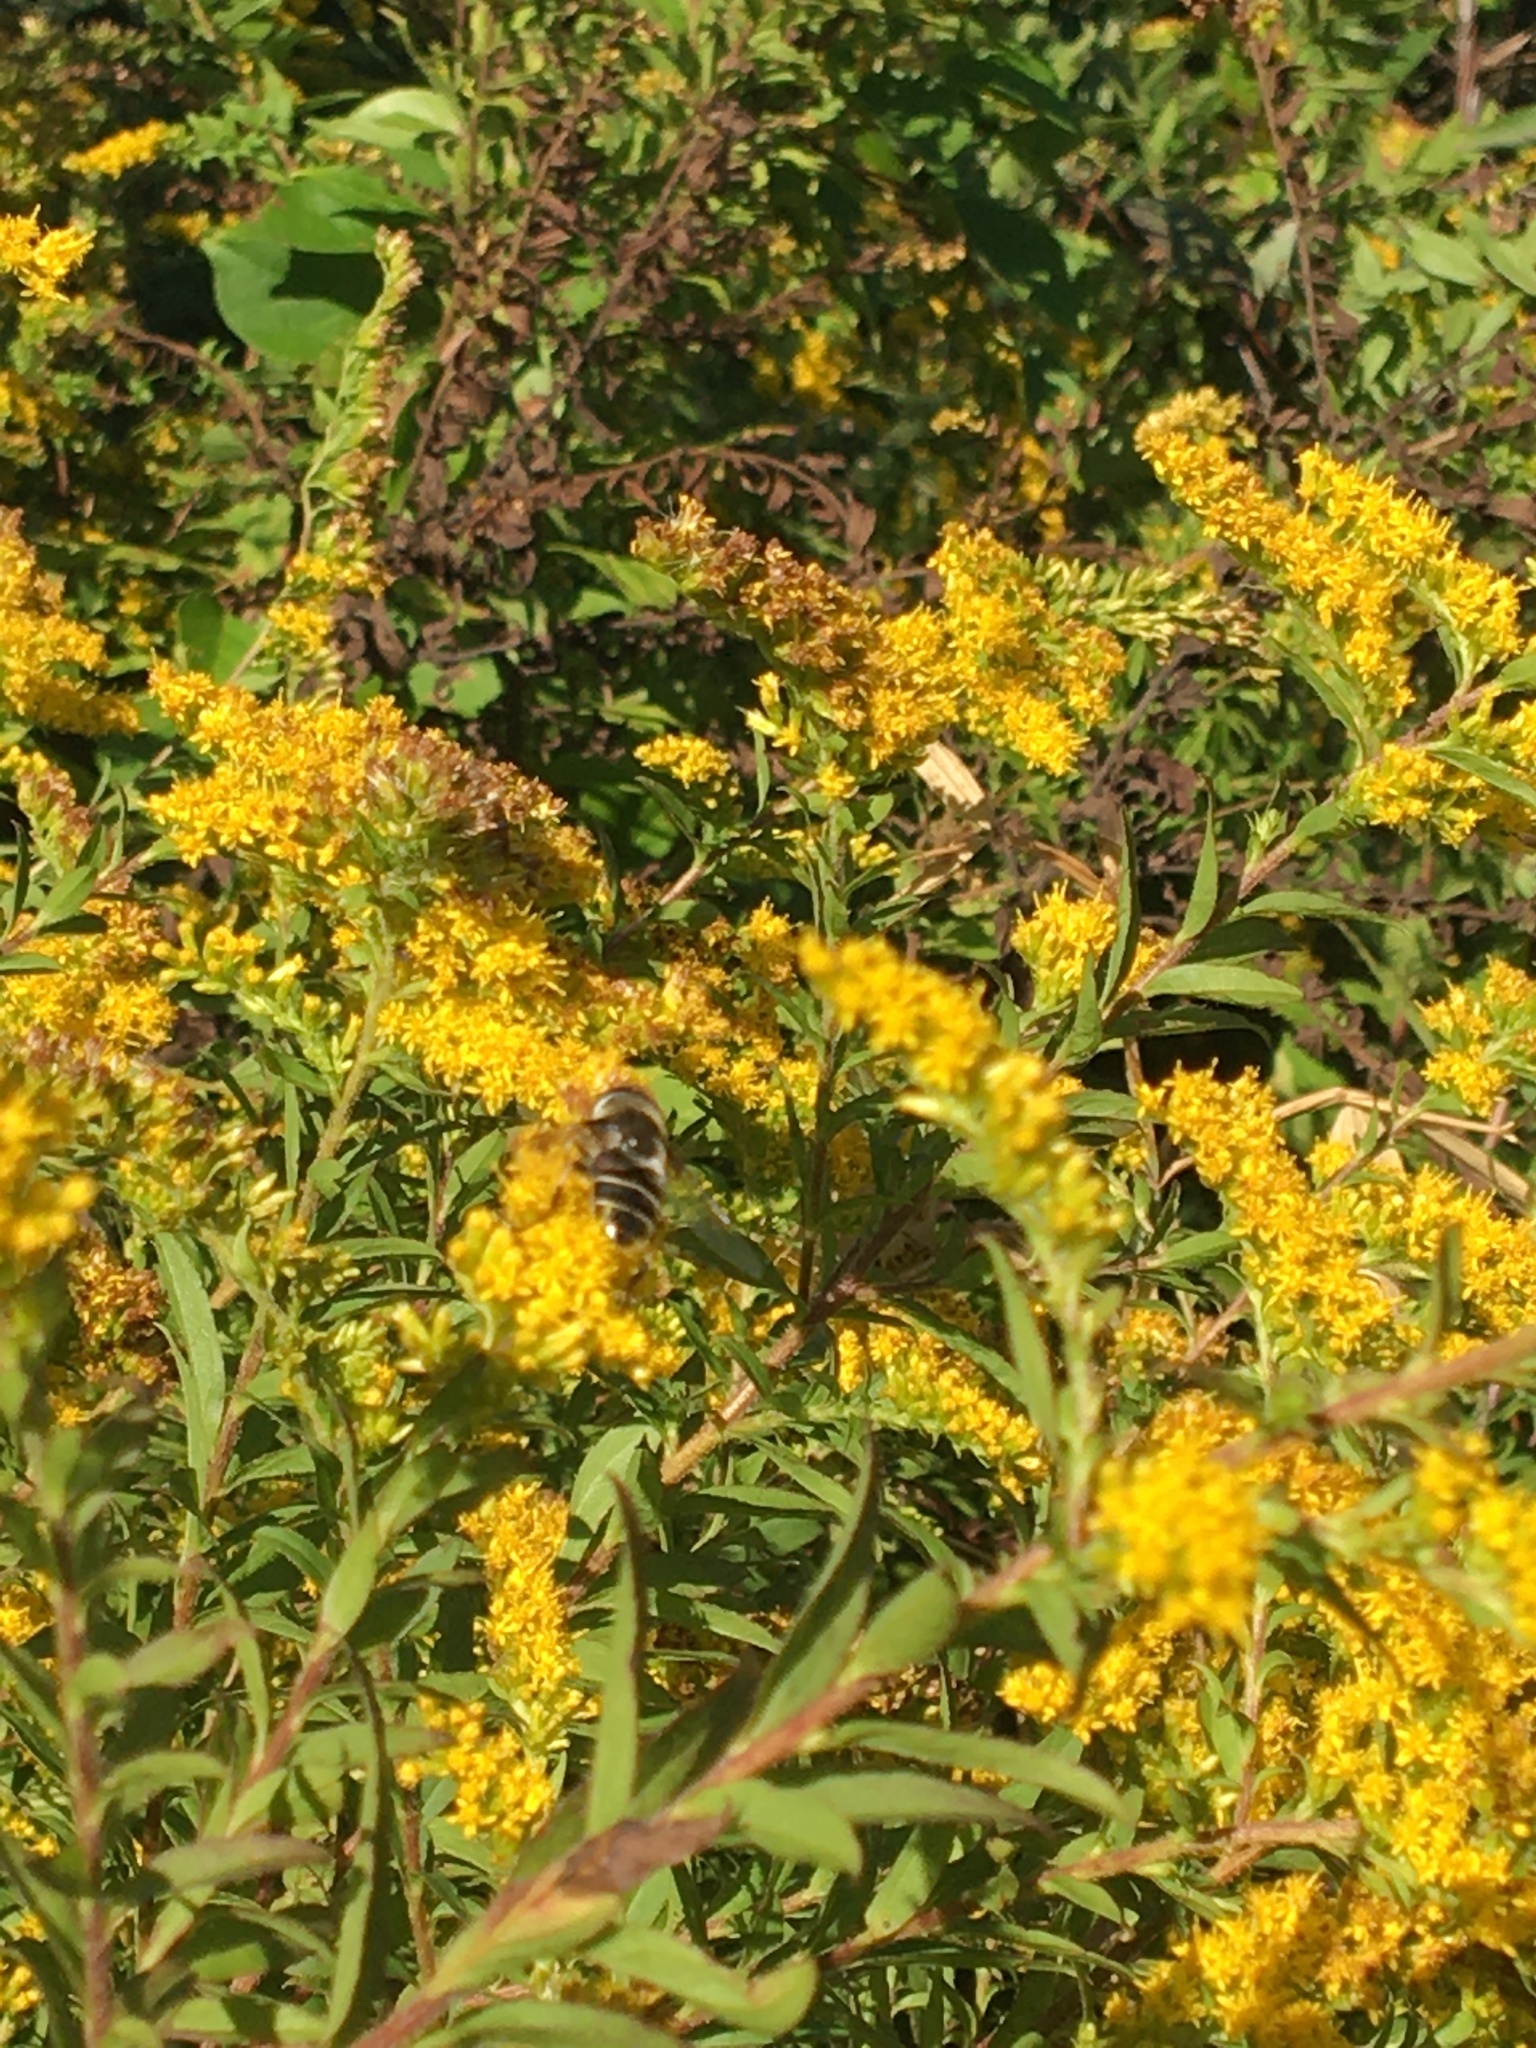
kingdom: Animalia
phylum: Arthropoda
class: Insecta
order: Diptera
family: Syrphidae
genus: Eristalis
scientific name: Eristalis dimidiata
